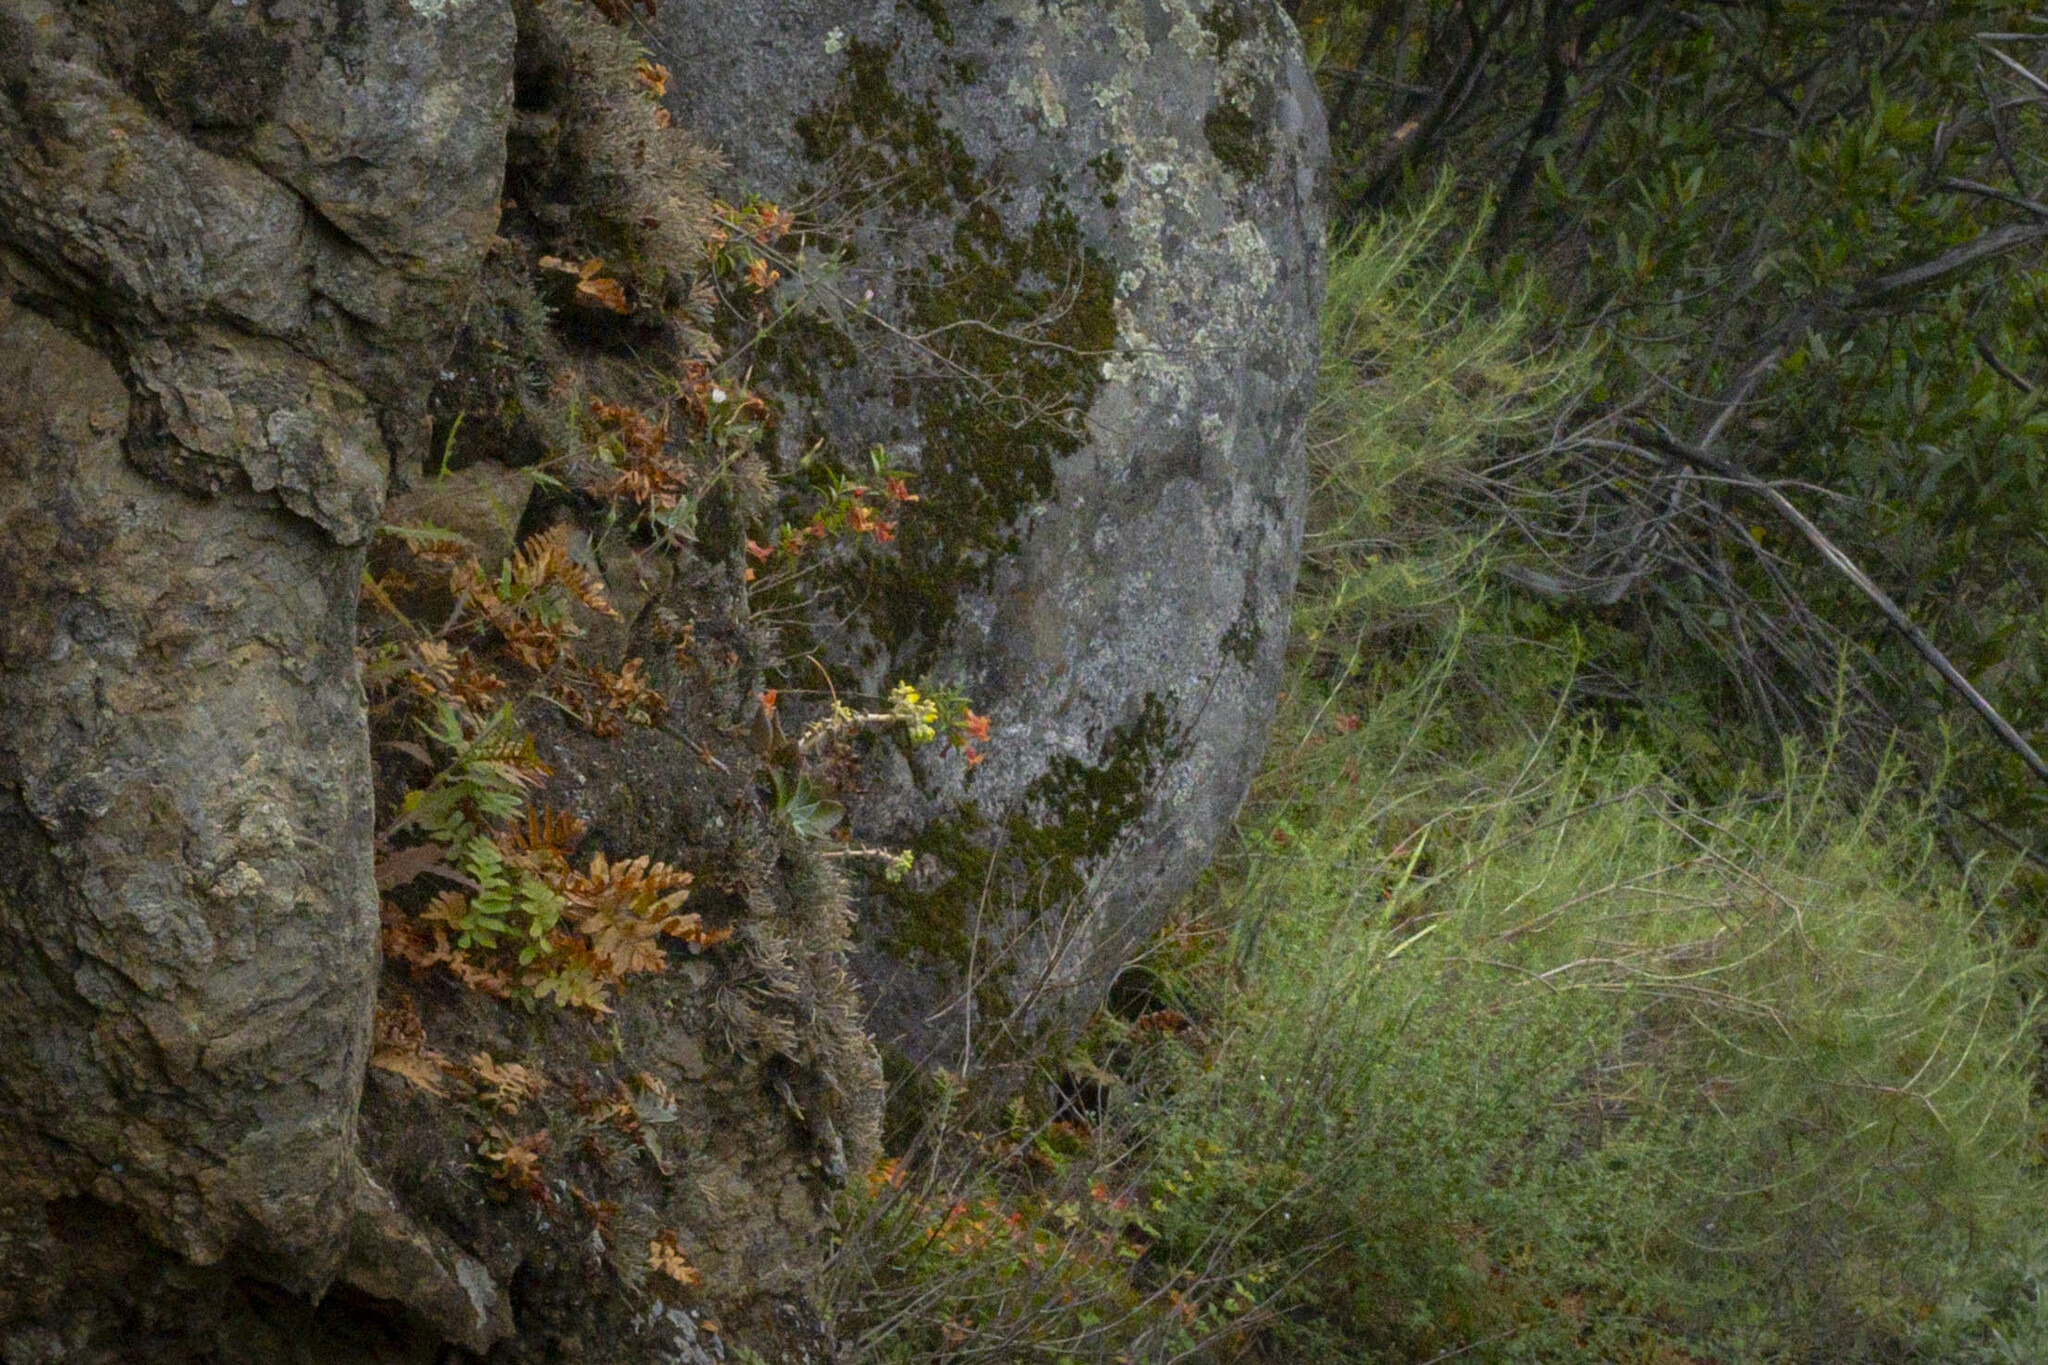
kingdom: Plantae
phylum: Tracheophyta
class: Magnoliopsida
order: Saxifragales
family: Crassulaceae
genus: Dudleya
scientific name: Dudleya cymosa
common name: Canyon dudleya
